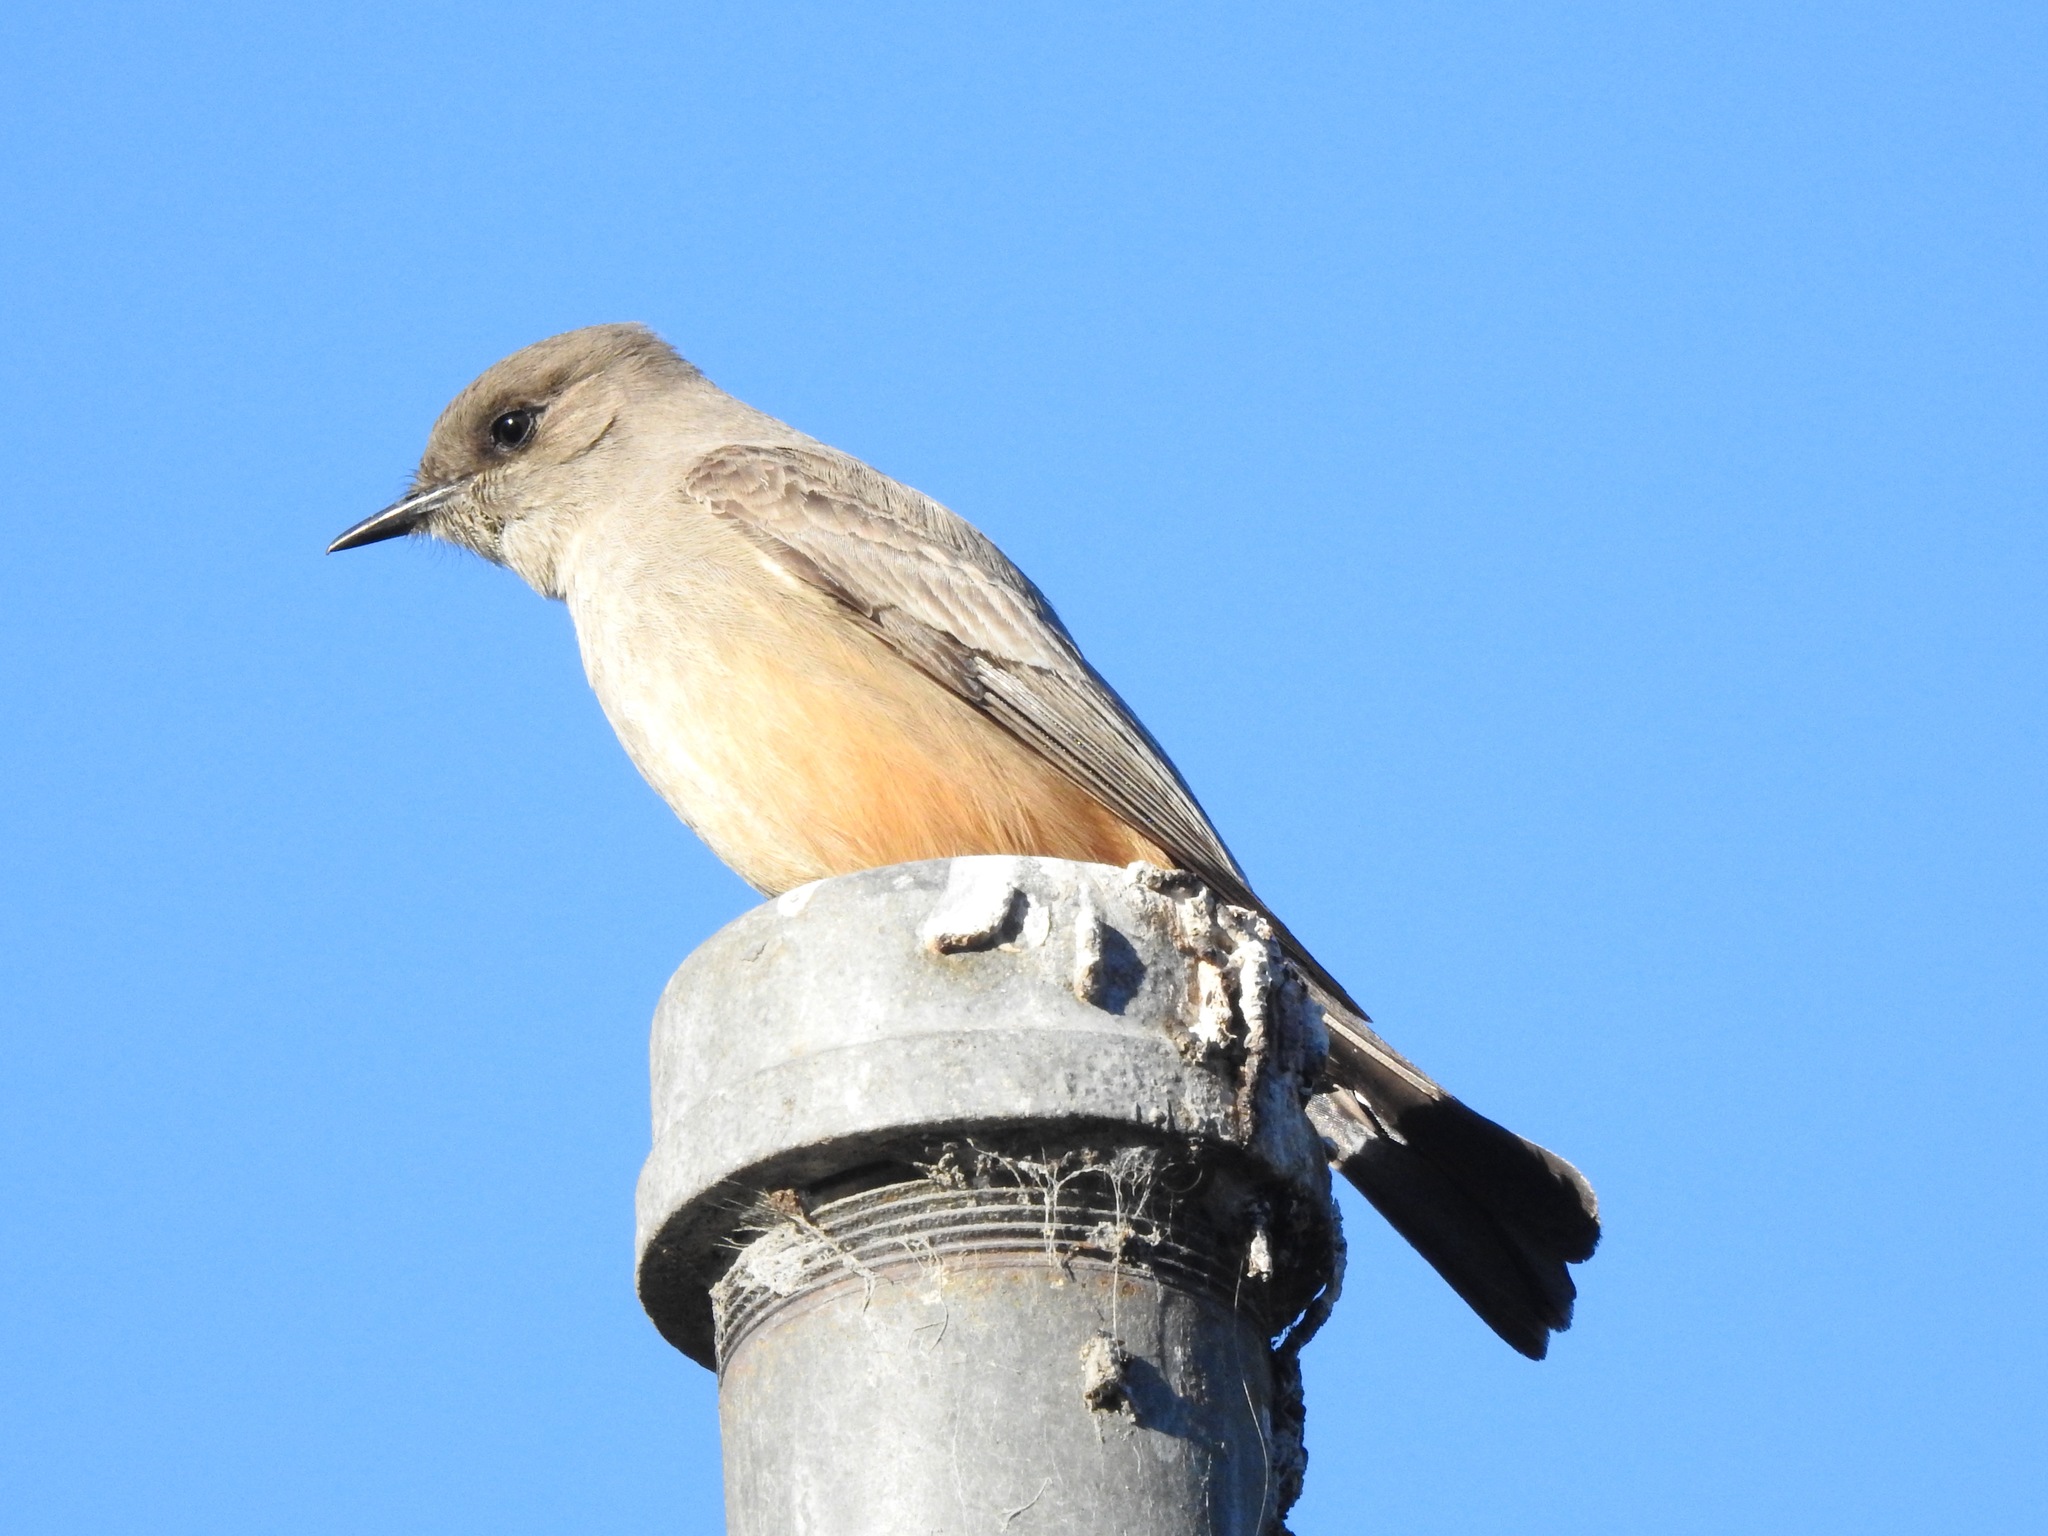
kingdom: Animalia
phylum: Chordata
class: Aves
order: Passeriformes
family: Tyrannidae
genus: Sayornis
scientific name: Sayornis saya
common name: Say's phoebe
